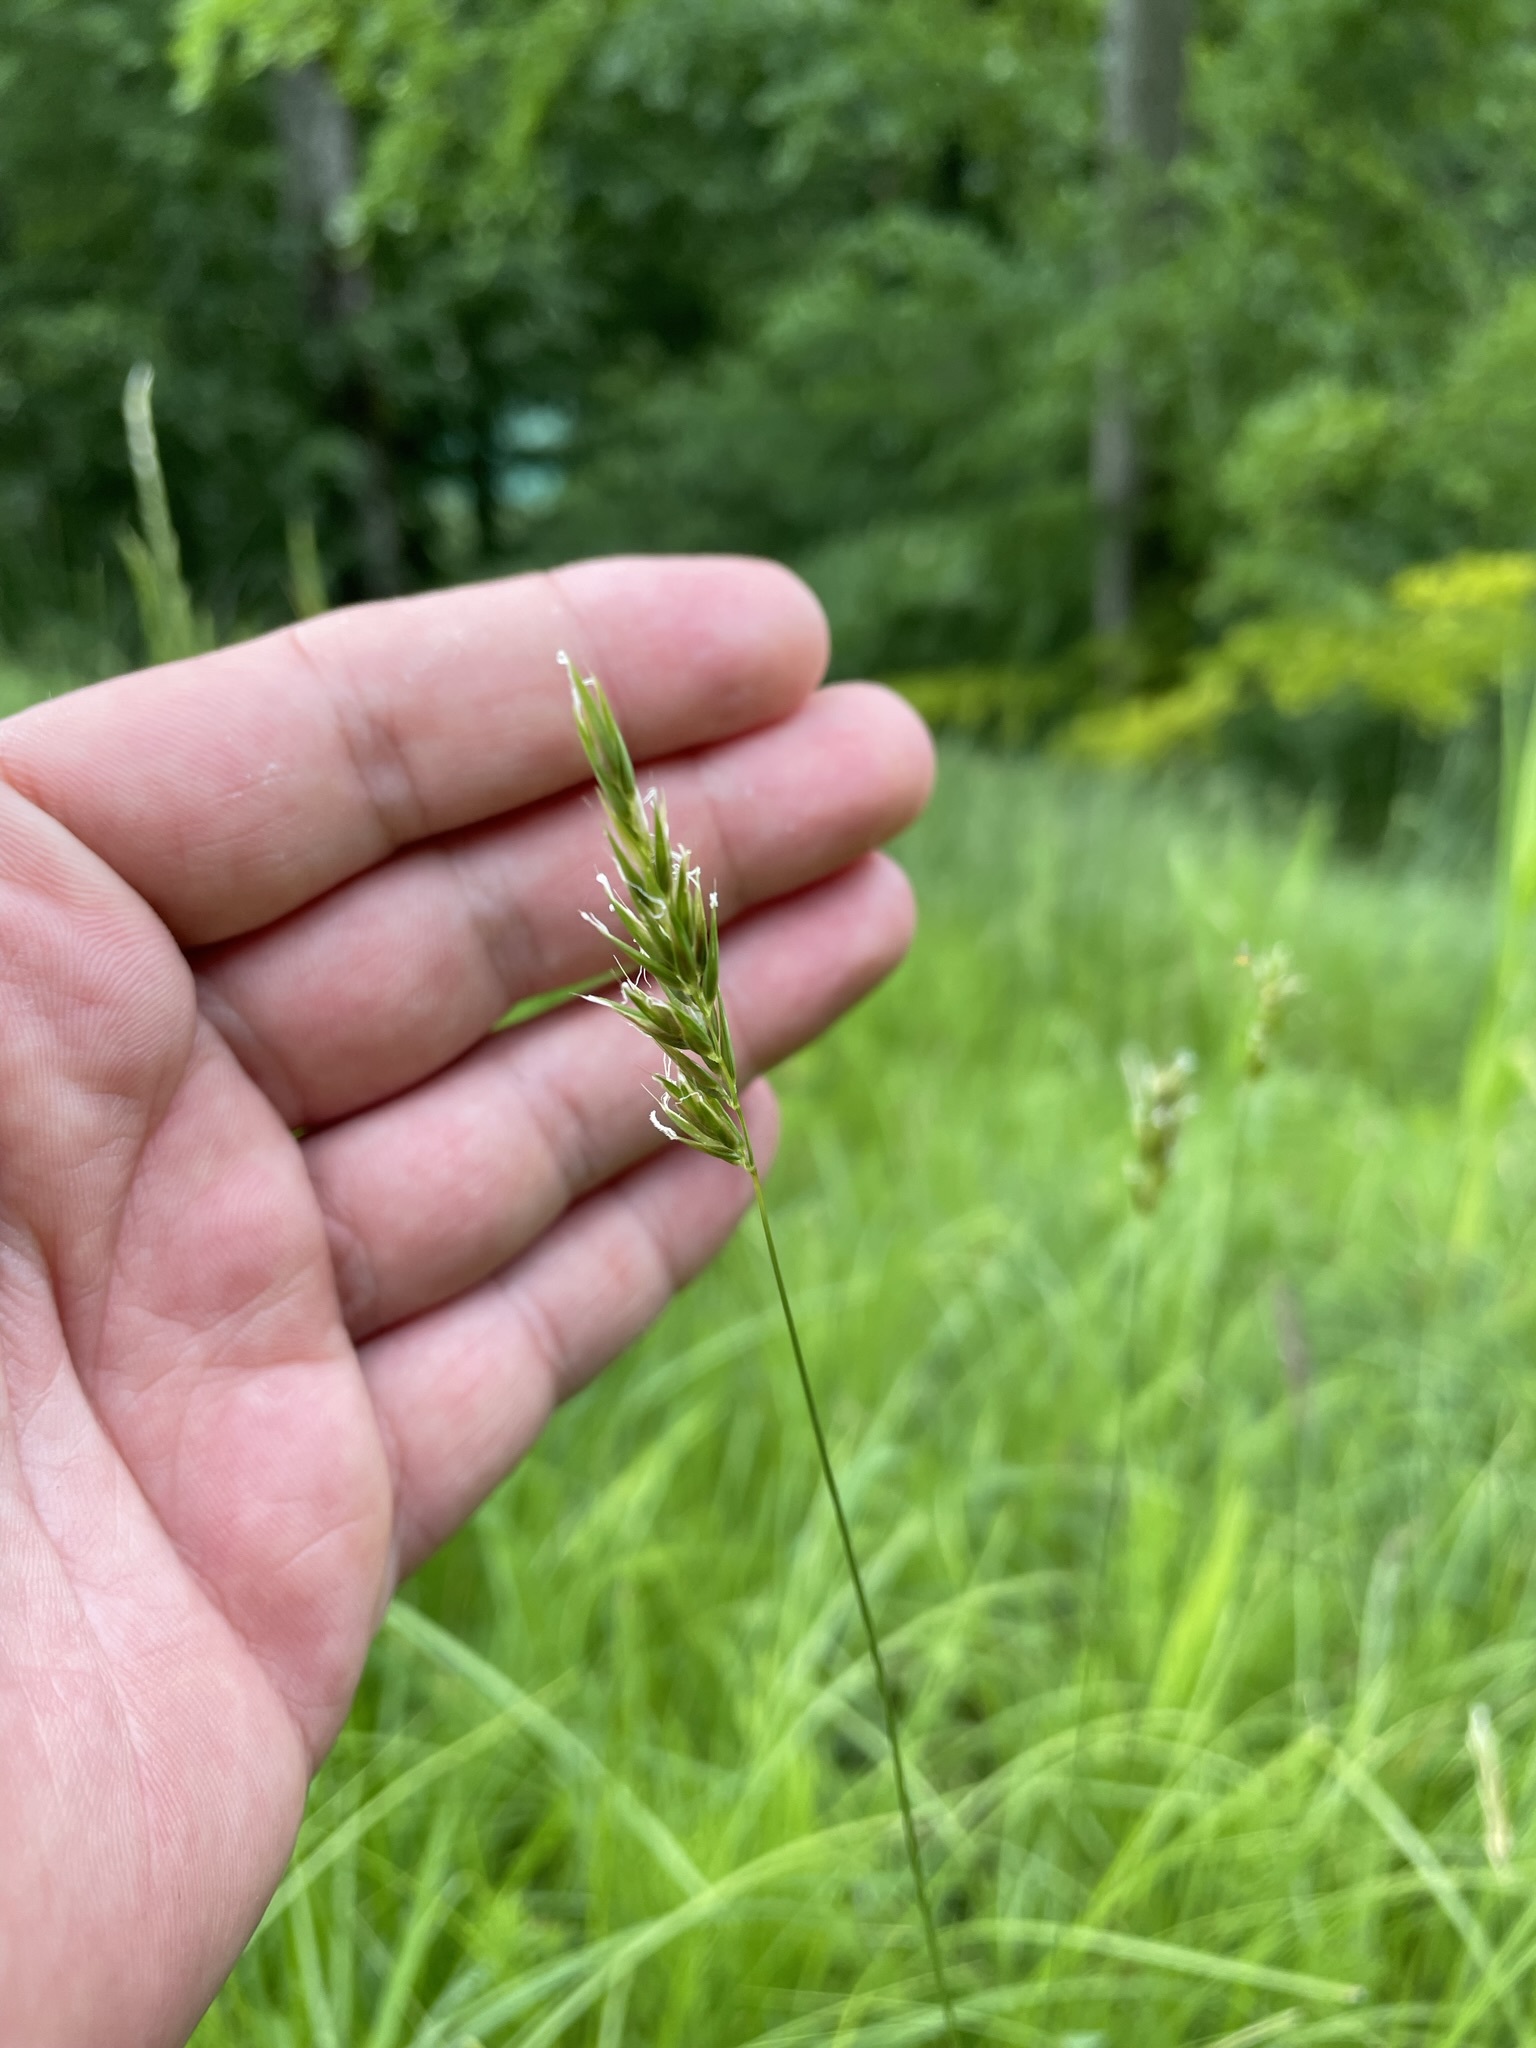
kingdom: Plantae
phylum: Tracheophyta
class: Liliopsida
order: Poales
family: Poaceae
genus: Anthoxanthum
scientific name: Anthoxanthum odoratum
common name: Sweet vernalgrass
